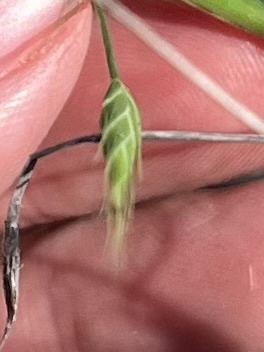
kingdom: Plantae
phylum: Tracheophyta
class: Liliopsida
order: Poales
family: Poaceae
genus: Brachypodium
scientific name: Brachypodium distachyon
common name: Stiff brome
